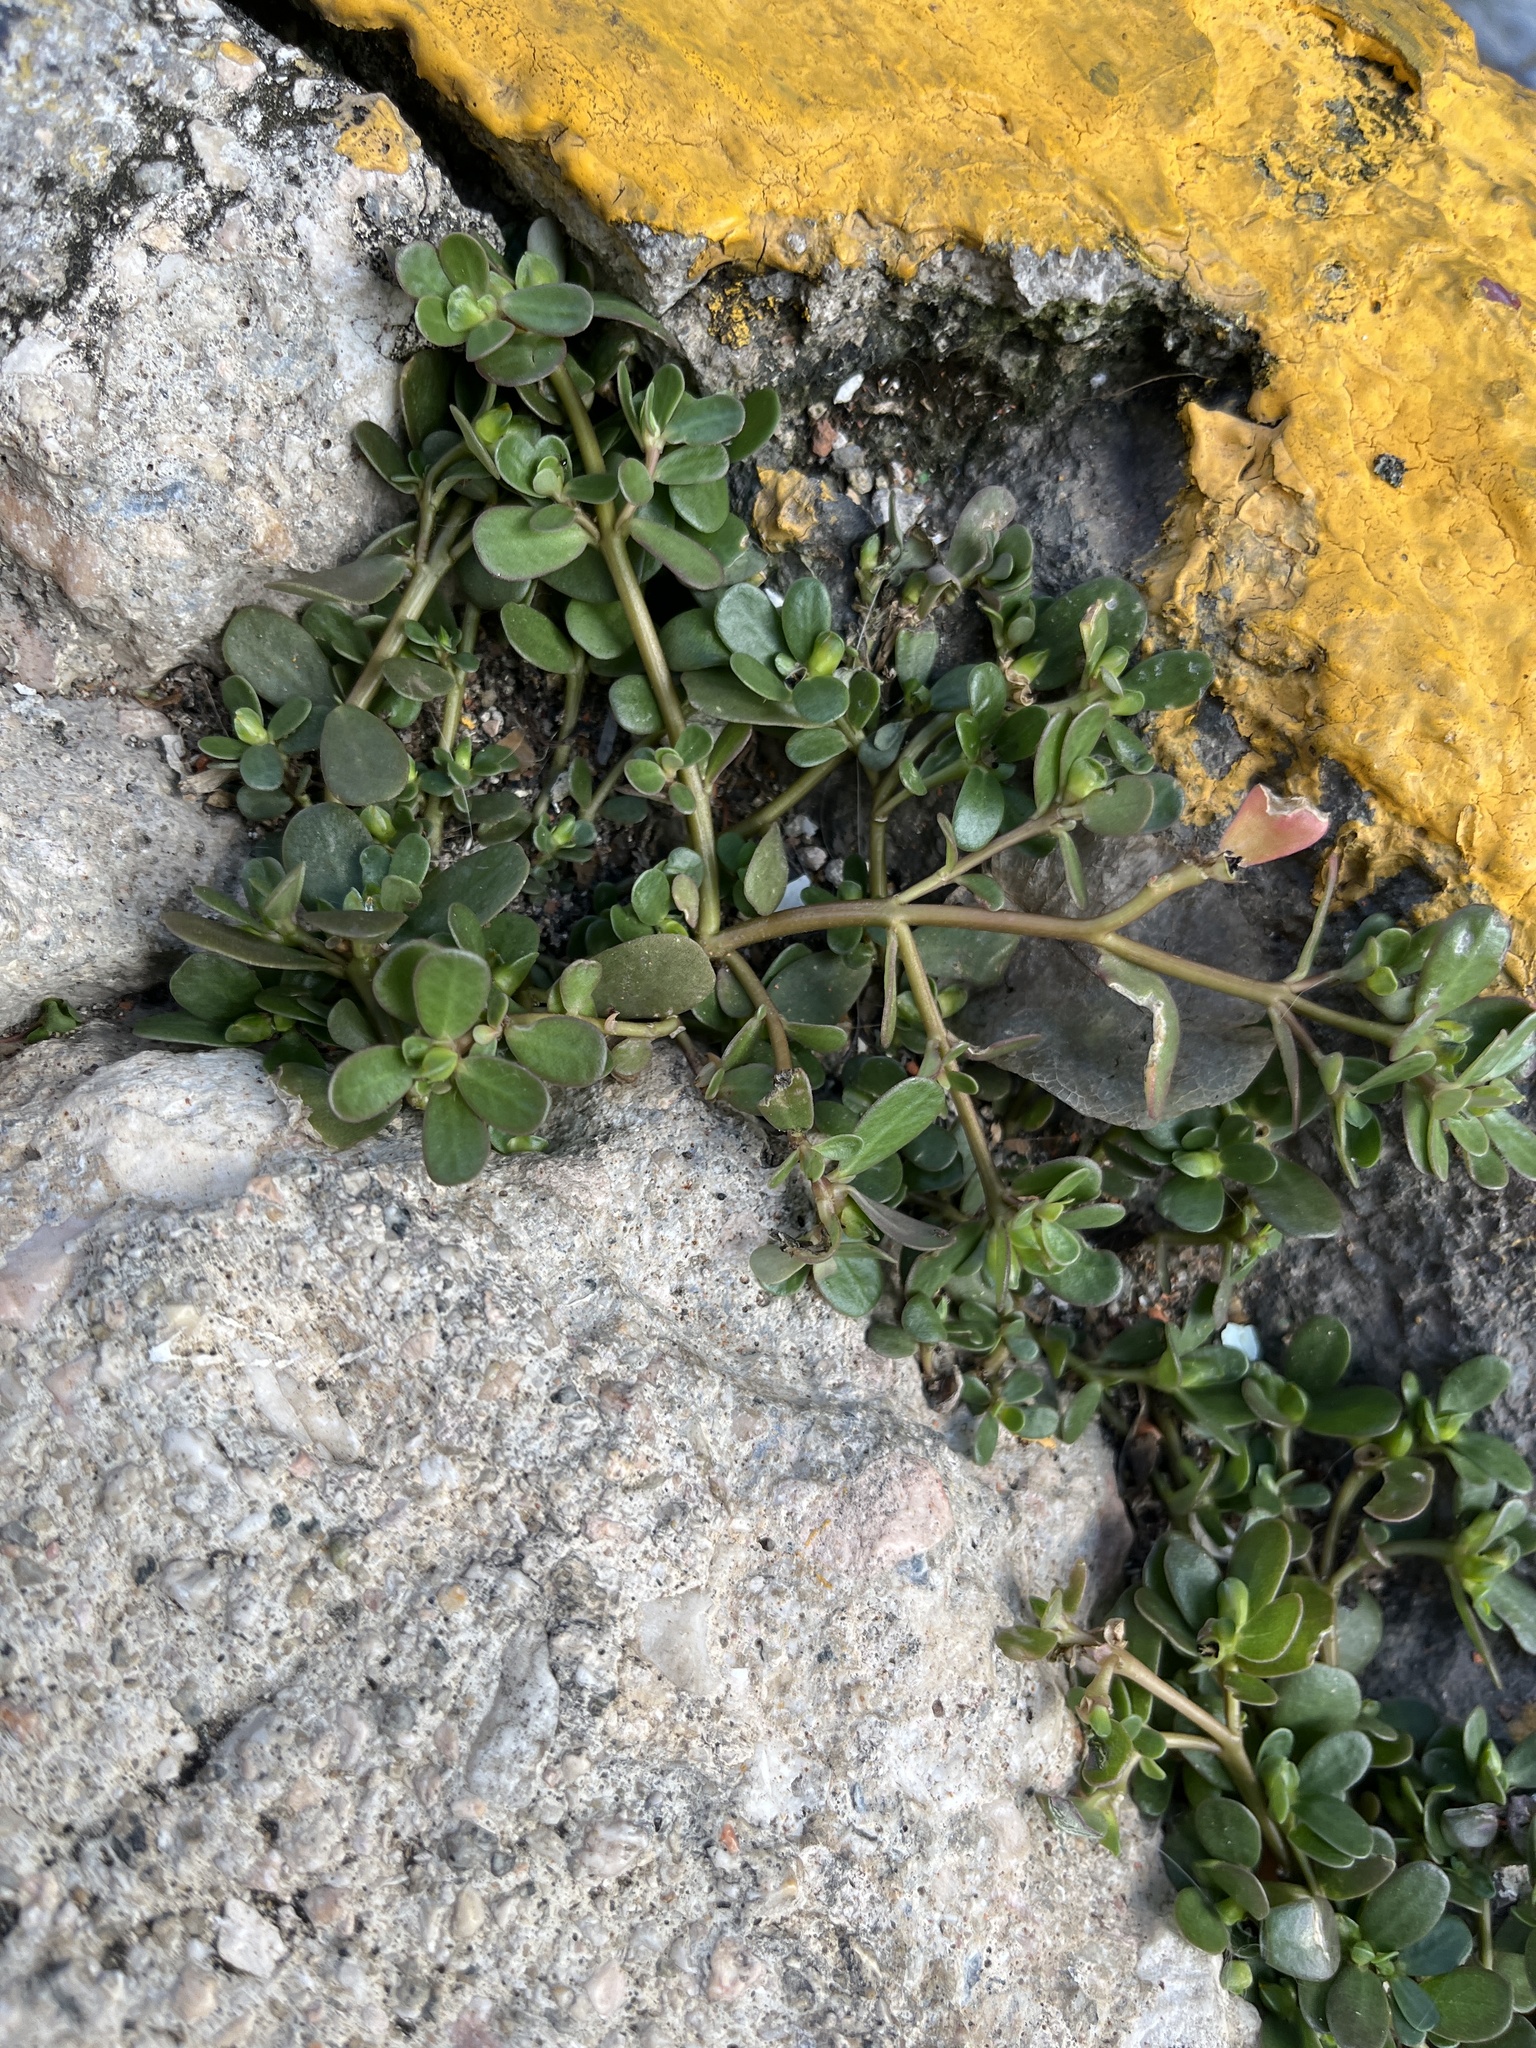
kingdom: Plantae
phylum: Tracheophyta
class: Magnoliopsida
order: Caryophyllales
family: Portulacaceae
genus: Portulaca
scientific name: Portulaca oleracea
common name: Common purslane
